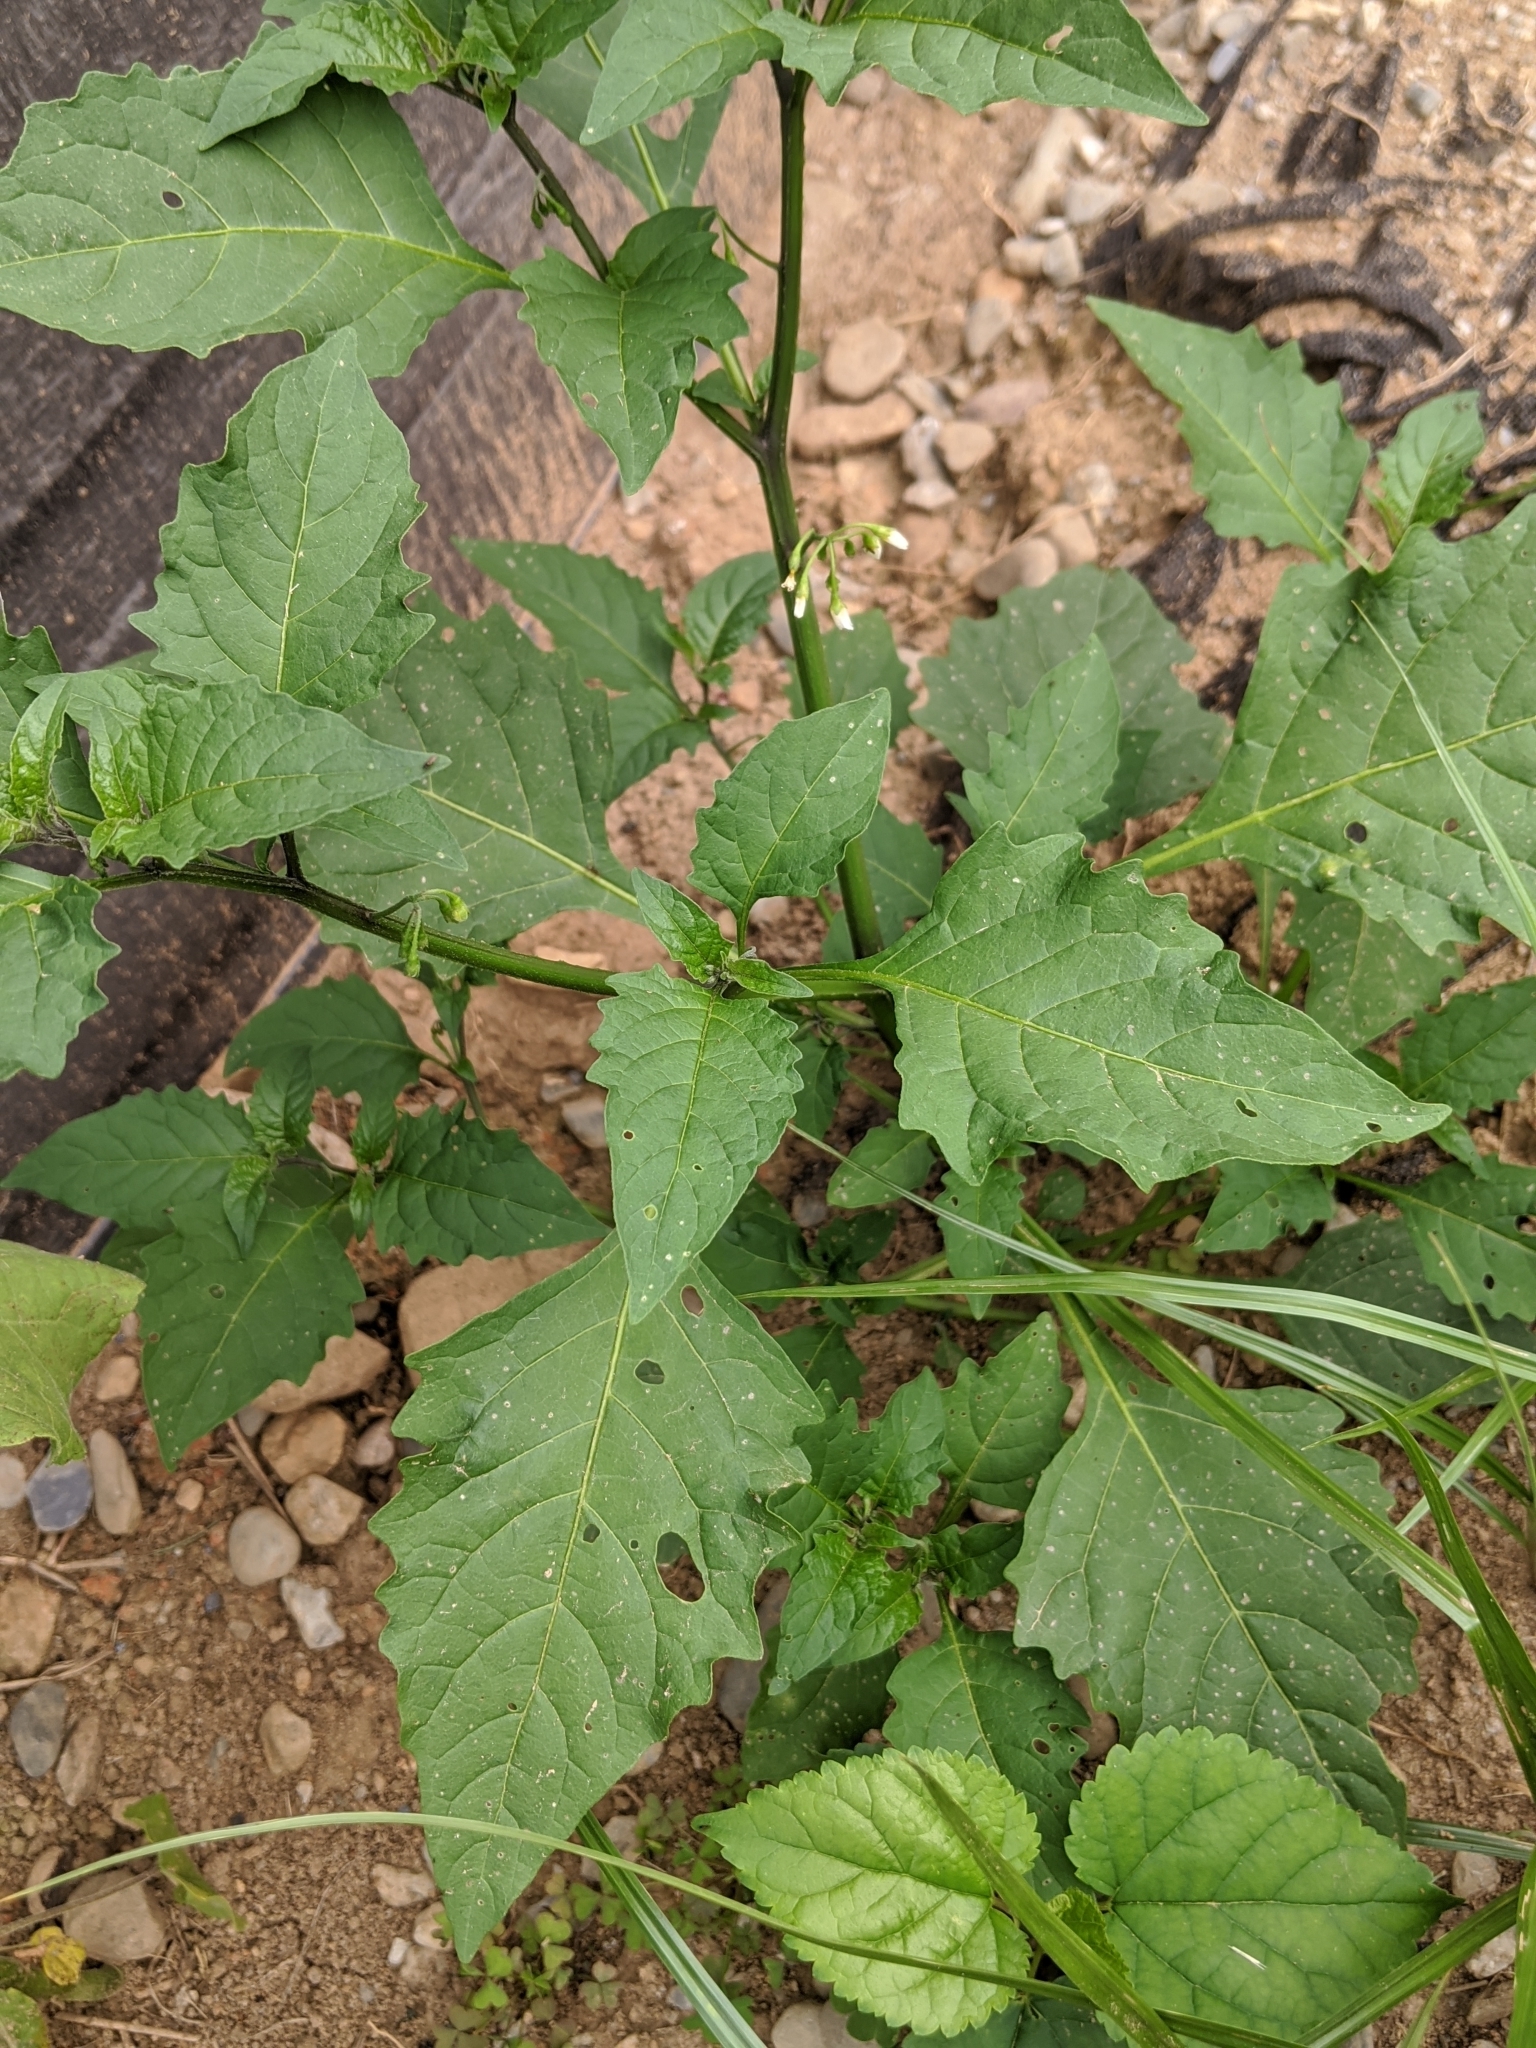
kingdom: Plantae
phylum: Tracheophyta
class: Magnoliopsida
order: Solanales
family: Solanaceae
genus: Solanum
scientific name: Solanum
